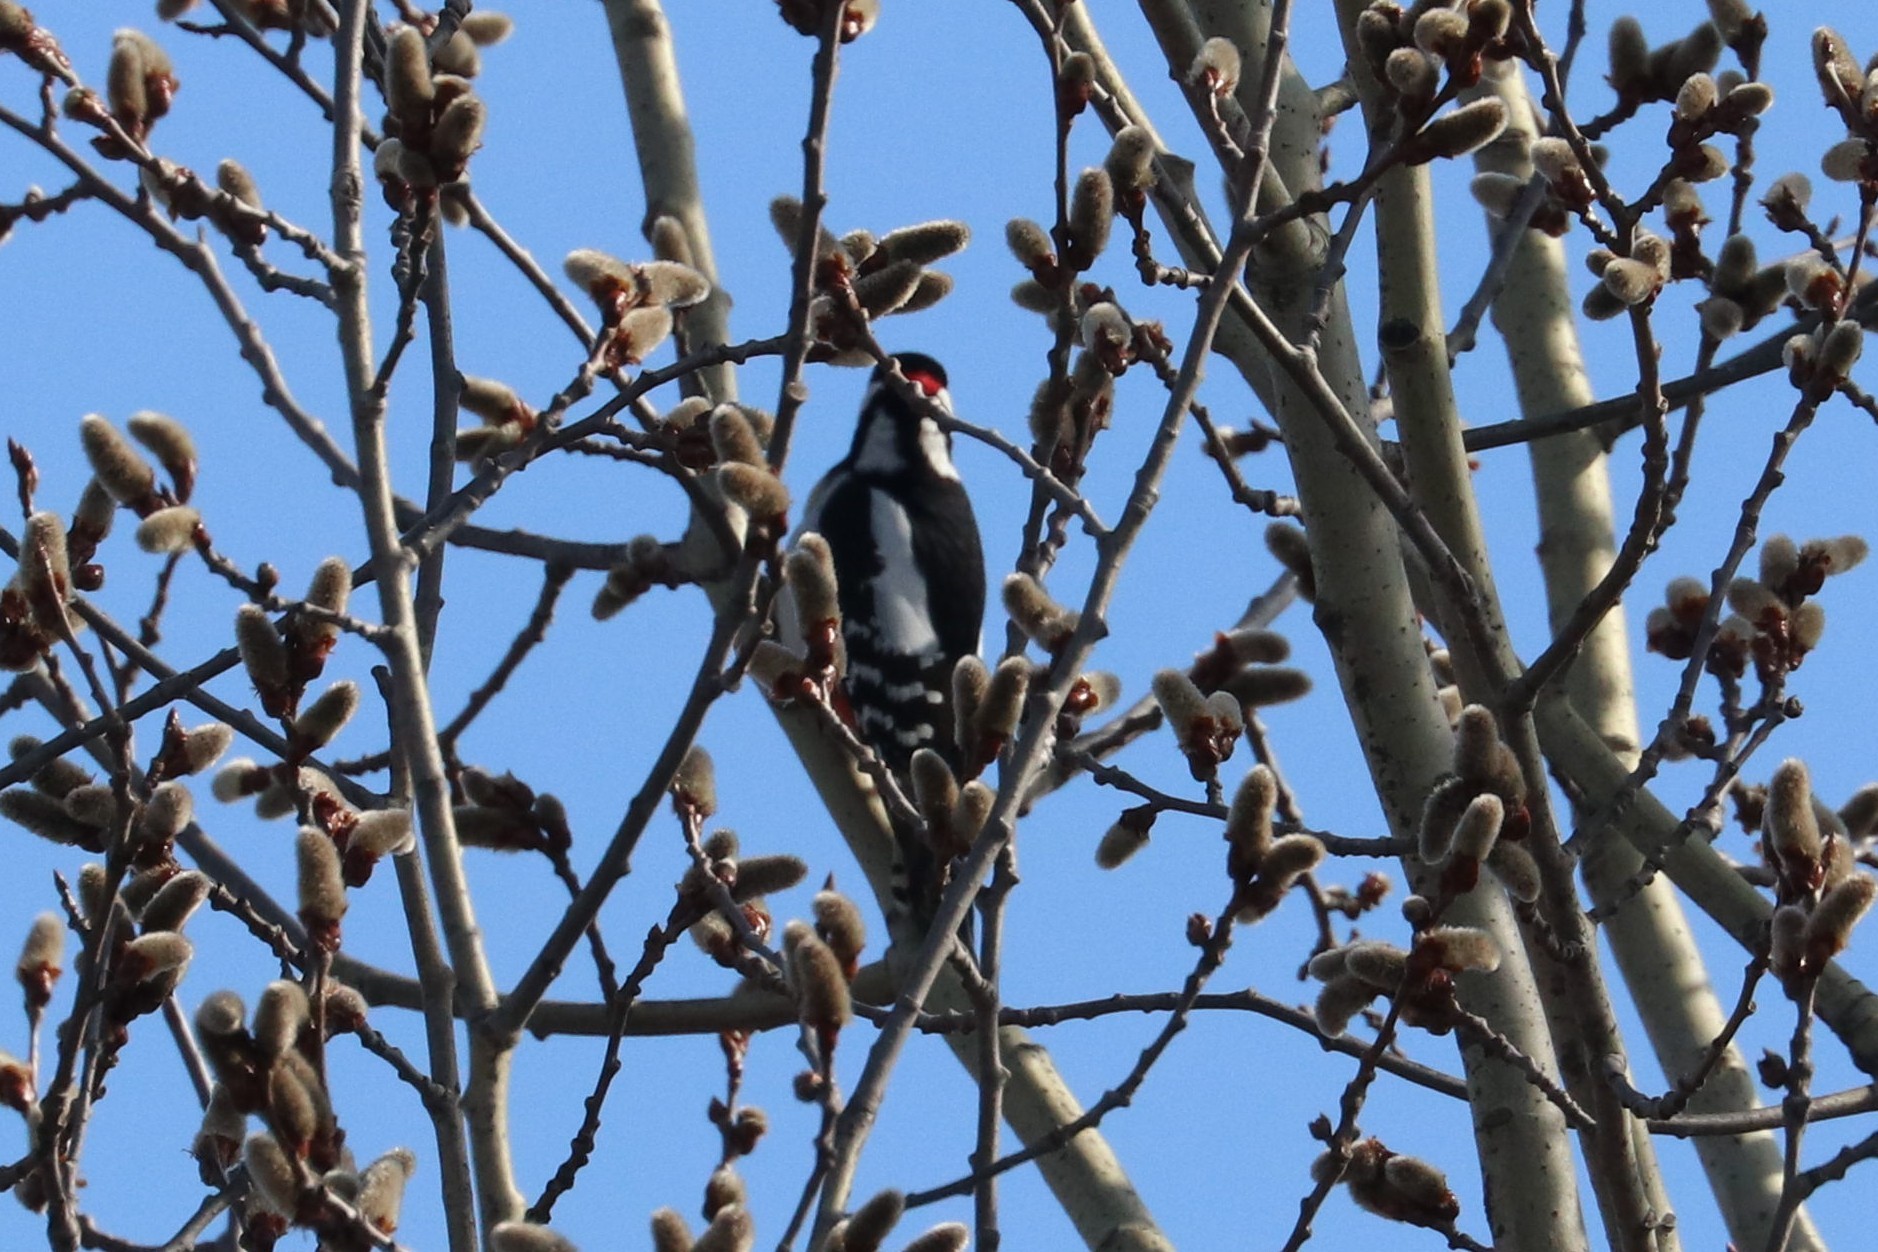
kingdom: Animalia
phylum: Chordata
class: Aves
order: Piciformes
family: Picidae
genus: Dendrocopos
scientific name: Dendrocopos major
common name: Great spotted woodpecker
